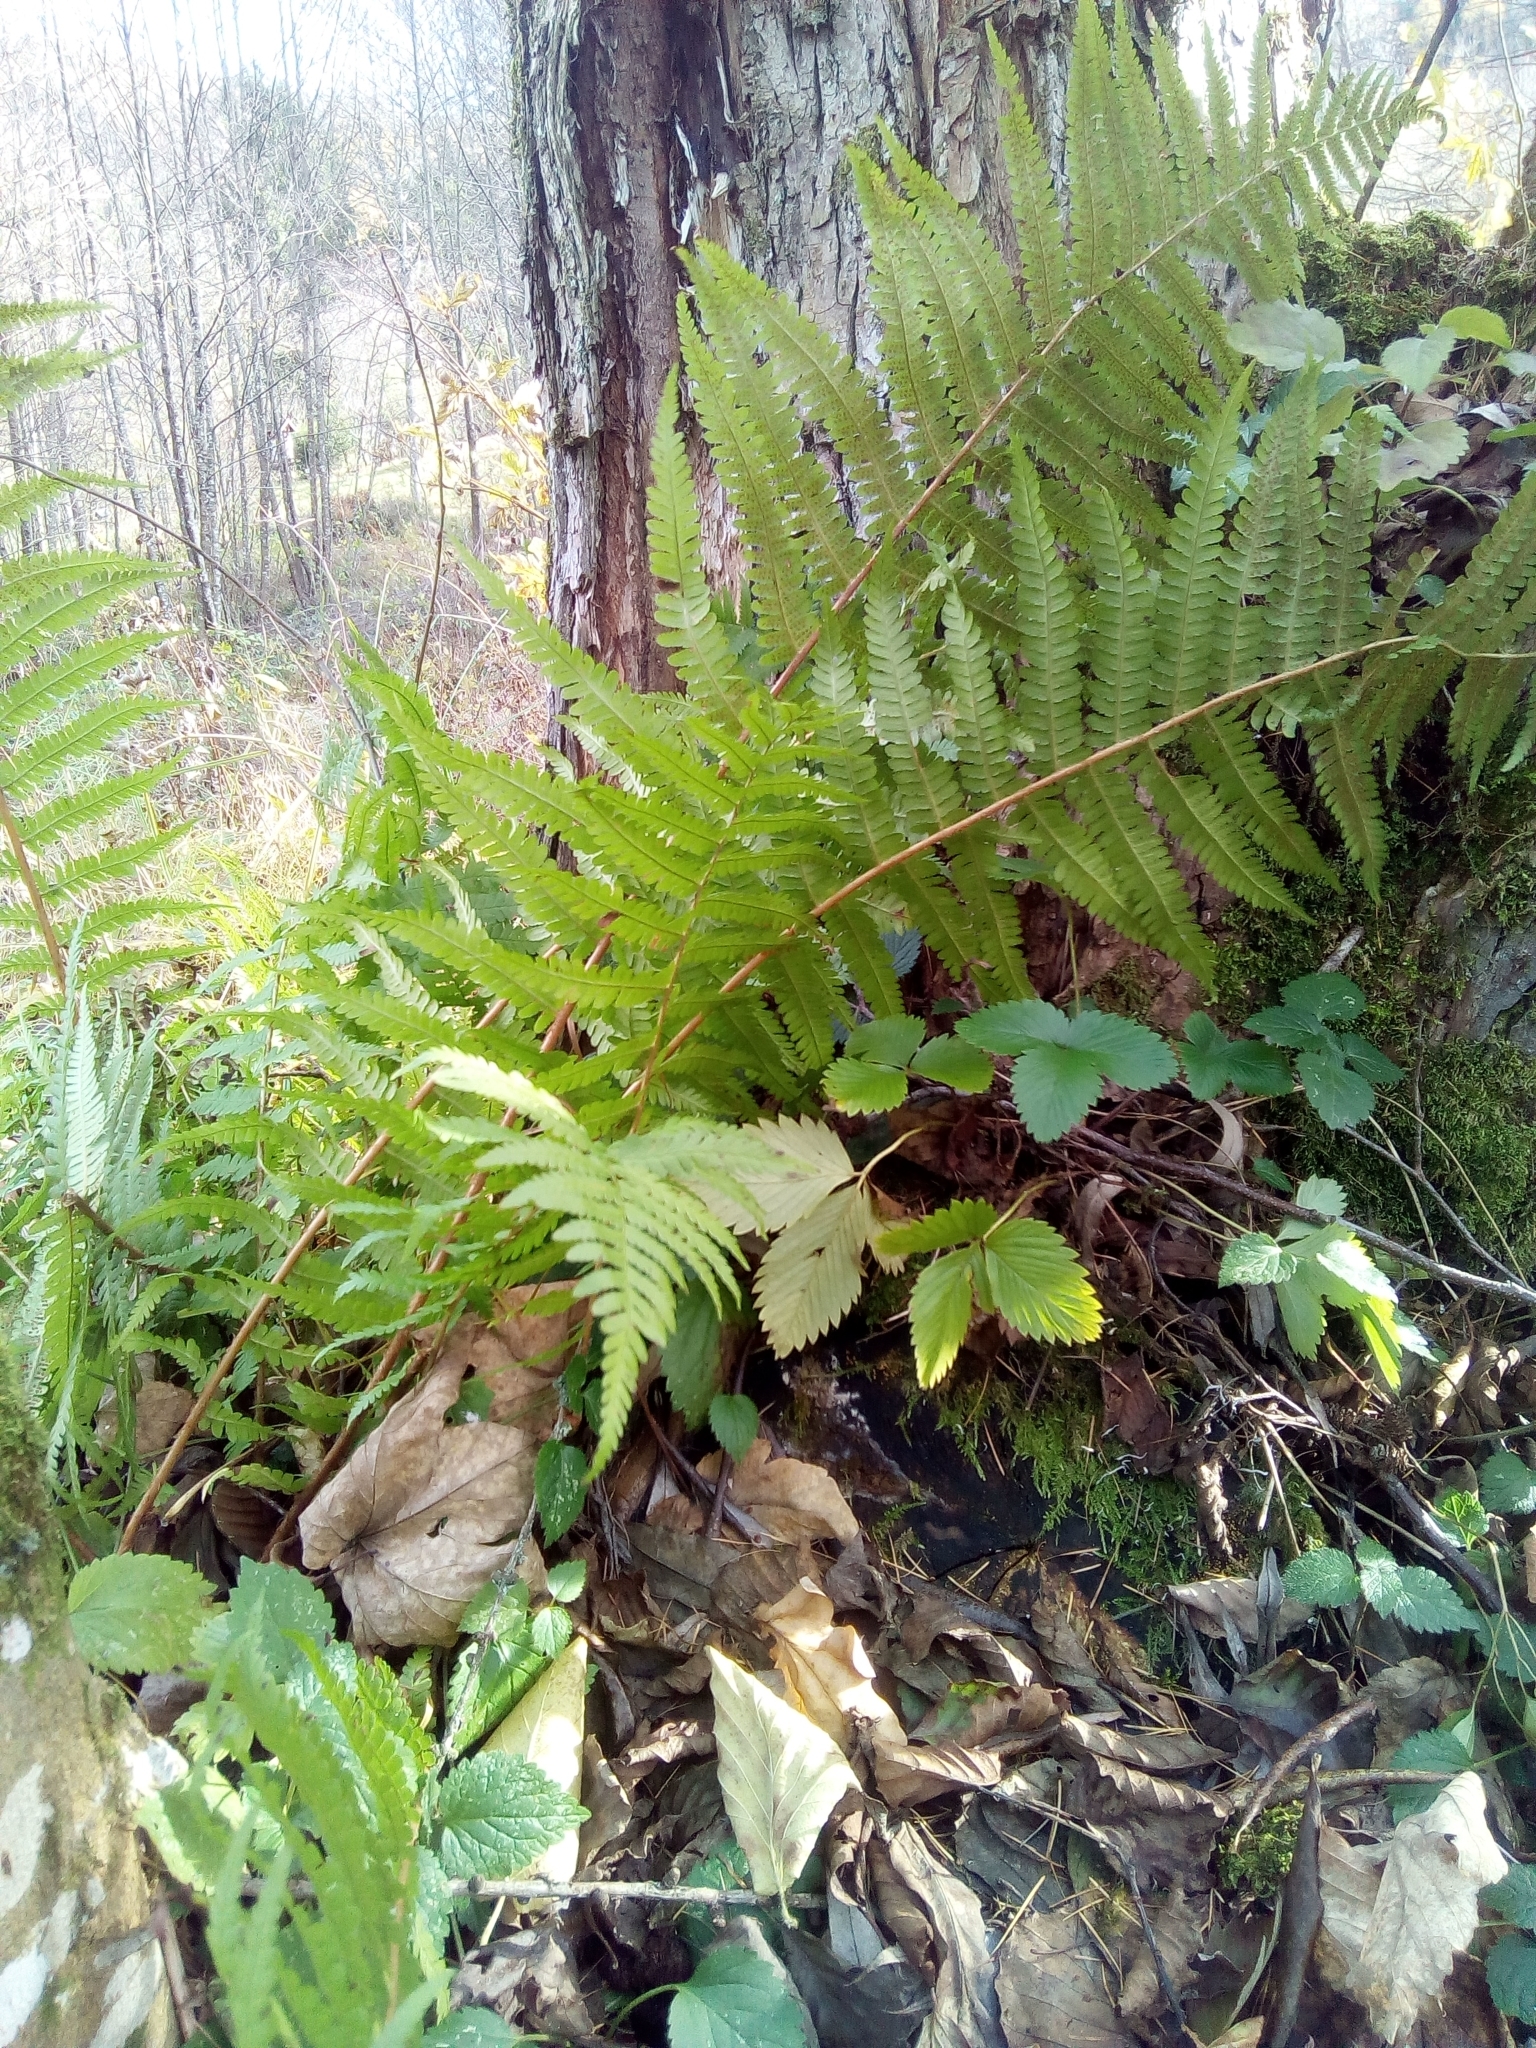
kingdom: Plantae
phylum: Tracheophyta
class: Polypodiopsida
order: Polypodiales
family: Dryopteridaceae
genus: Dryopteris
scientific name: Dryopteris filix-mas
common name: Male fern
